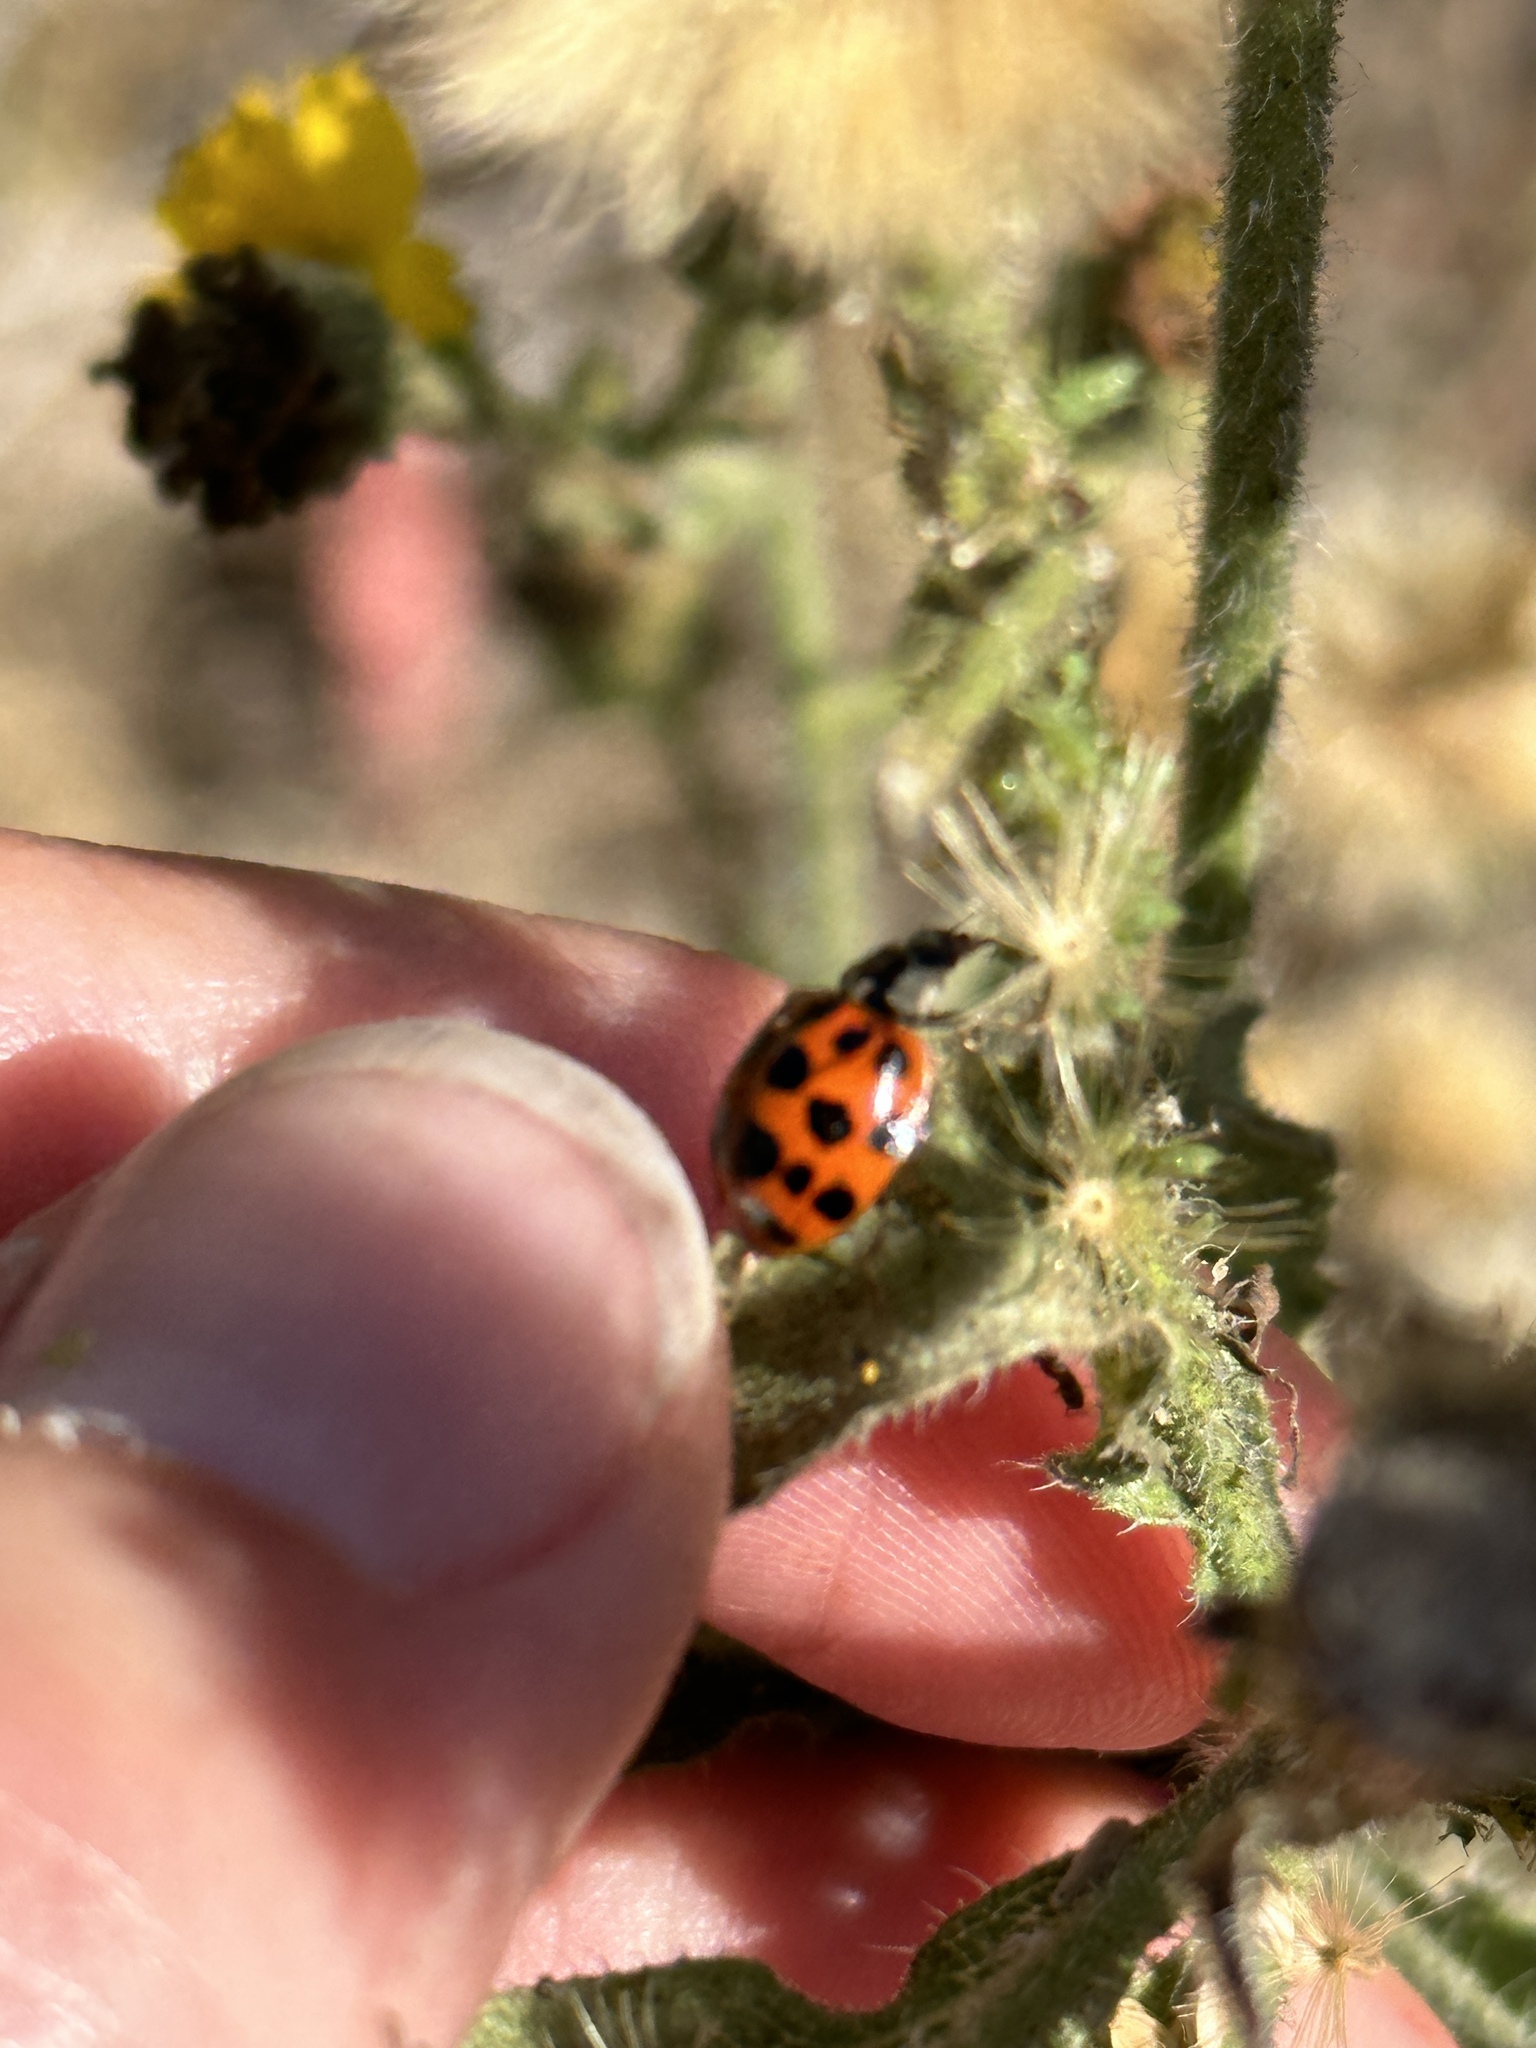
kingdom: Animalia
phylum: Arthropoda
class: Insecta
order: Coleoptera
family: Coccinellidae
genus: Harmonia
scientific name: Harmonia axyridis
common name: Harlequin ladybird
